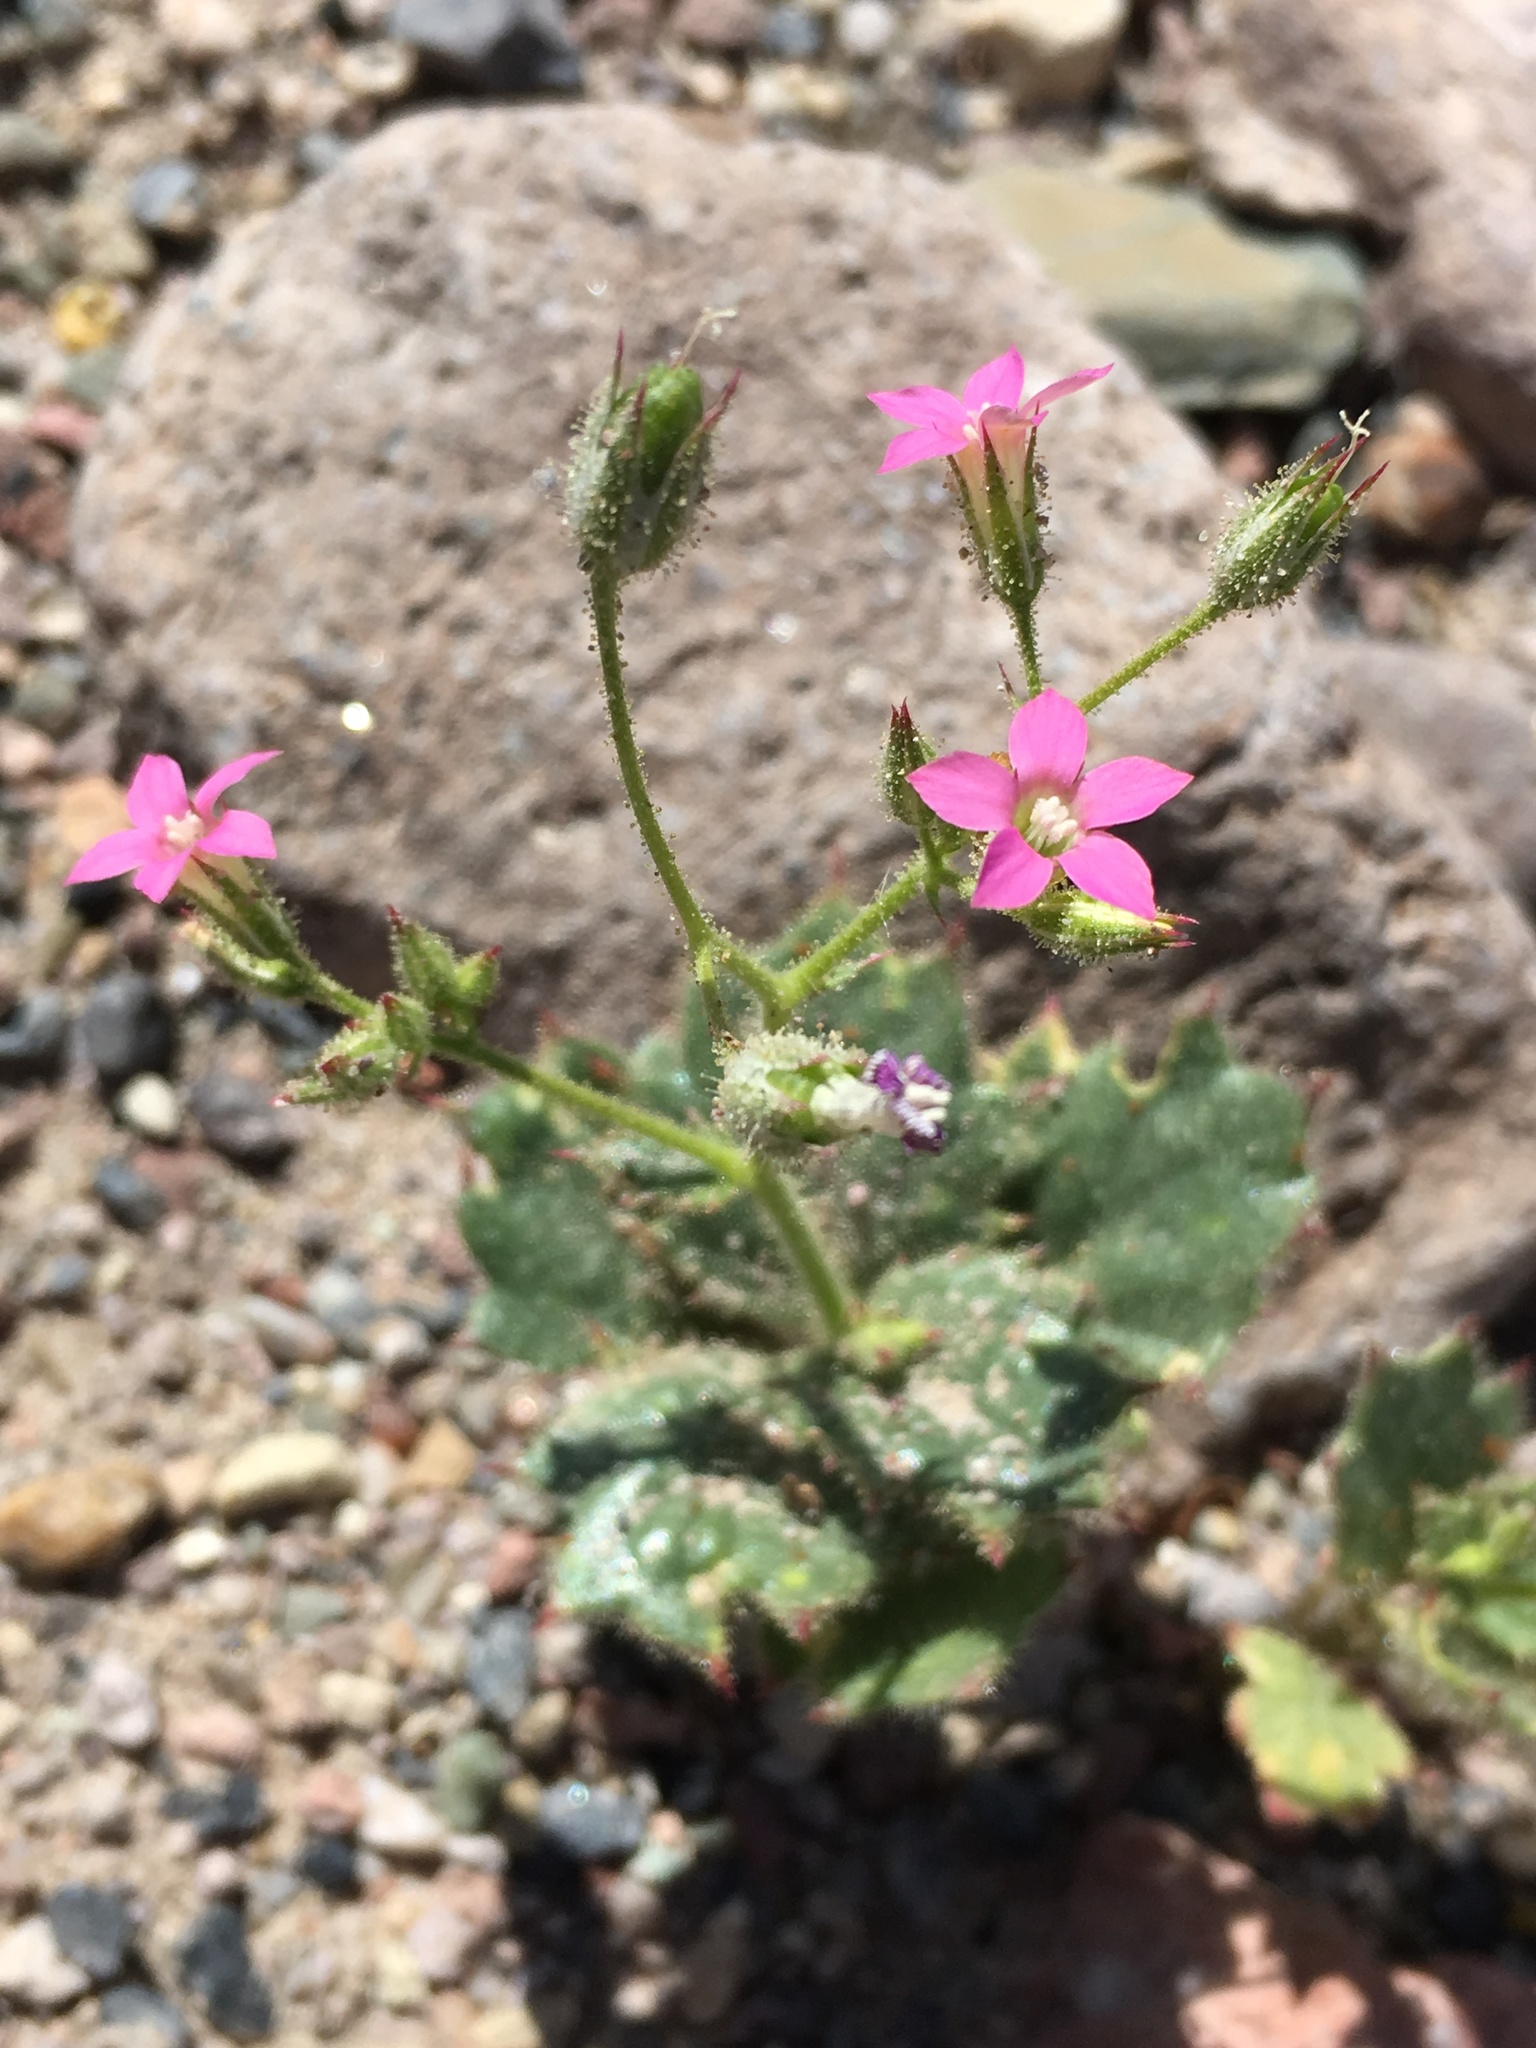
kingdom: Plantae
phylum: Tracheophyta
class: Magnoliopsida
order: Ericales
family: Polemoniaceae
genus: Aliciella
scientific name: Aliciella latifolia
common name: Broad-leaf gilia
